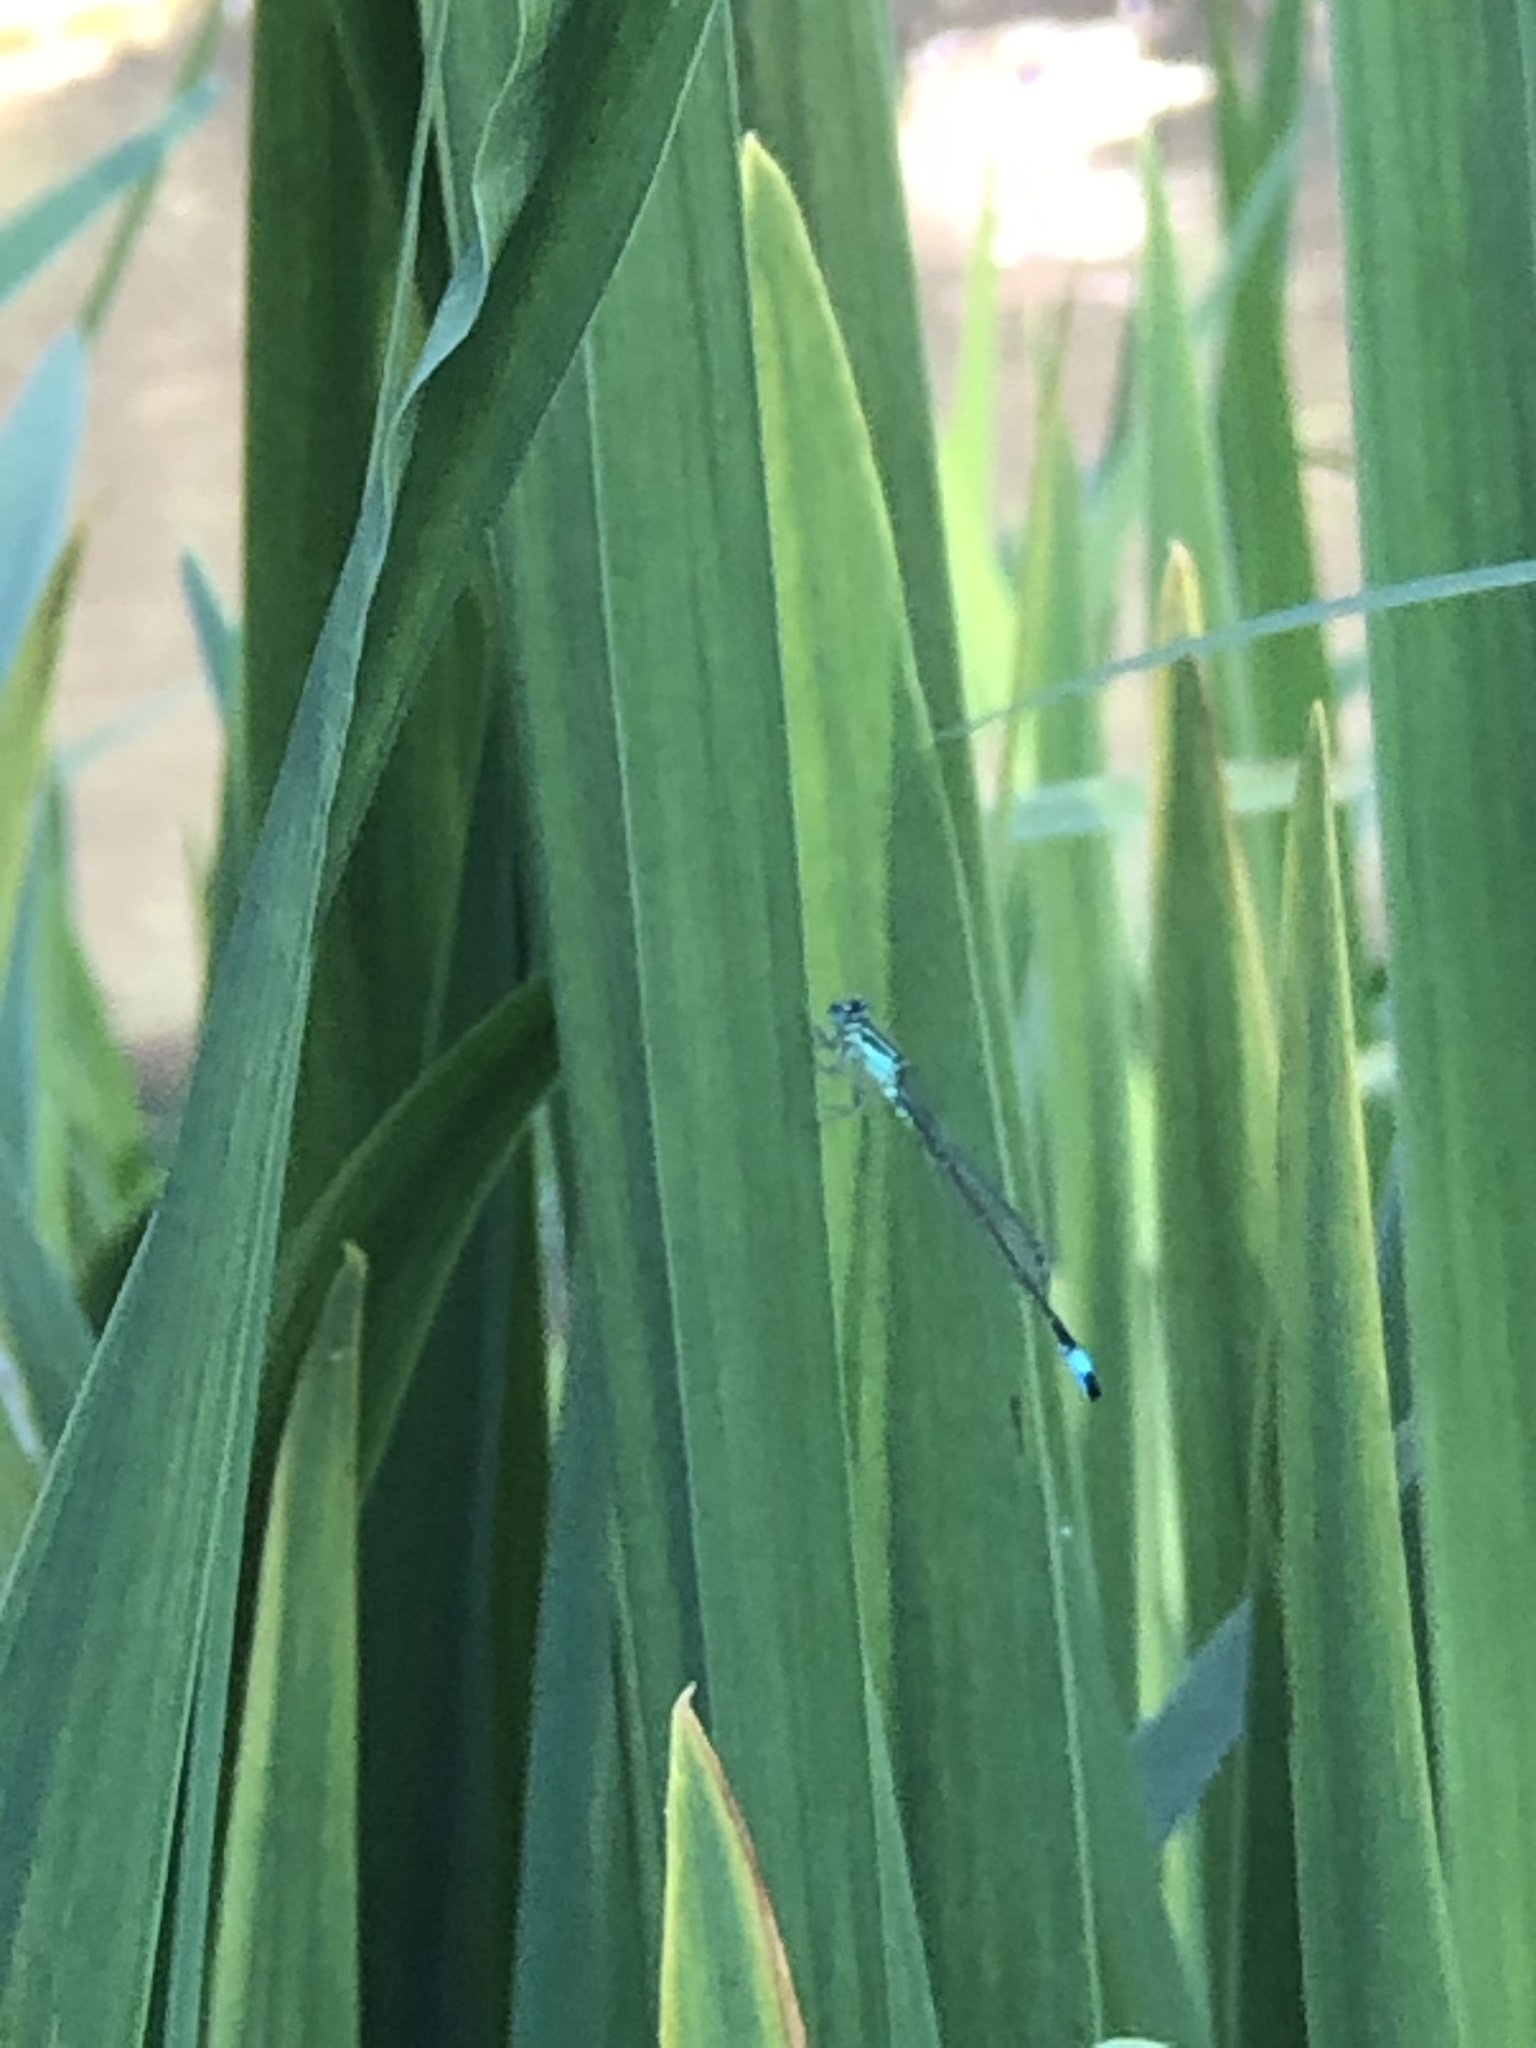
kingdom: Animalia
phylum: Arthropoda
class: Insecta
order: Odonata
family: Coenagrionidae
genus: Ischnura
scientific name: Ischnura elegans
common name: Blue-tailed damselfly
